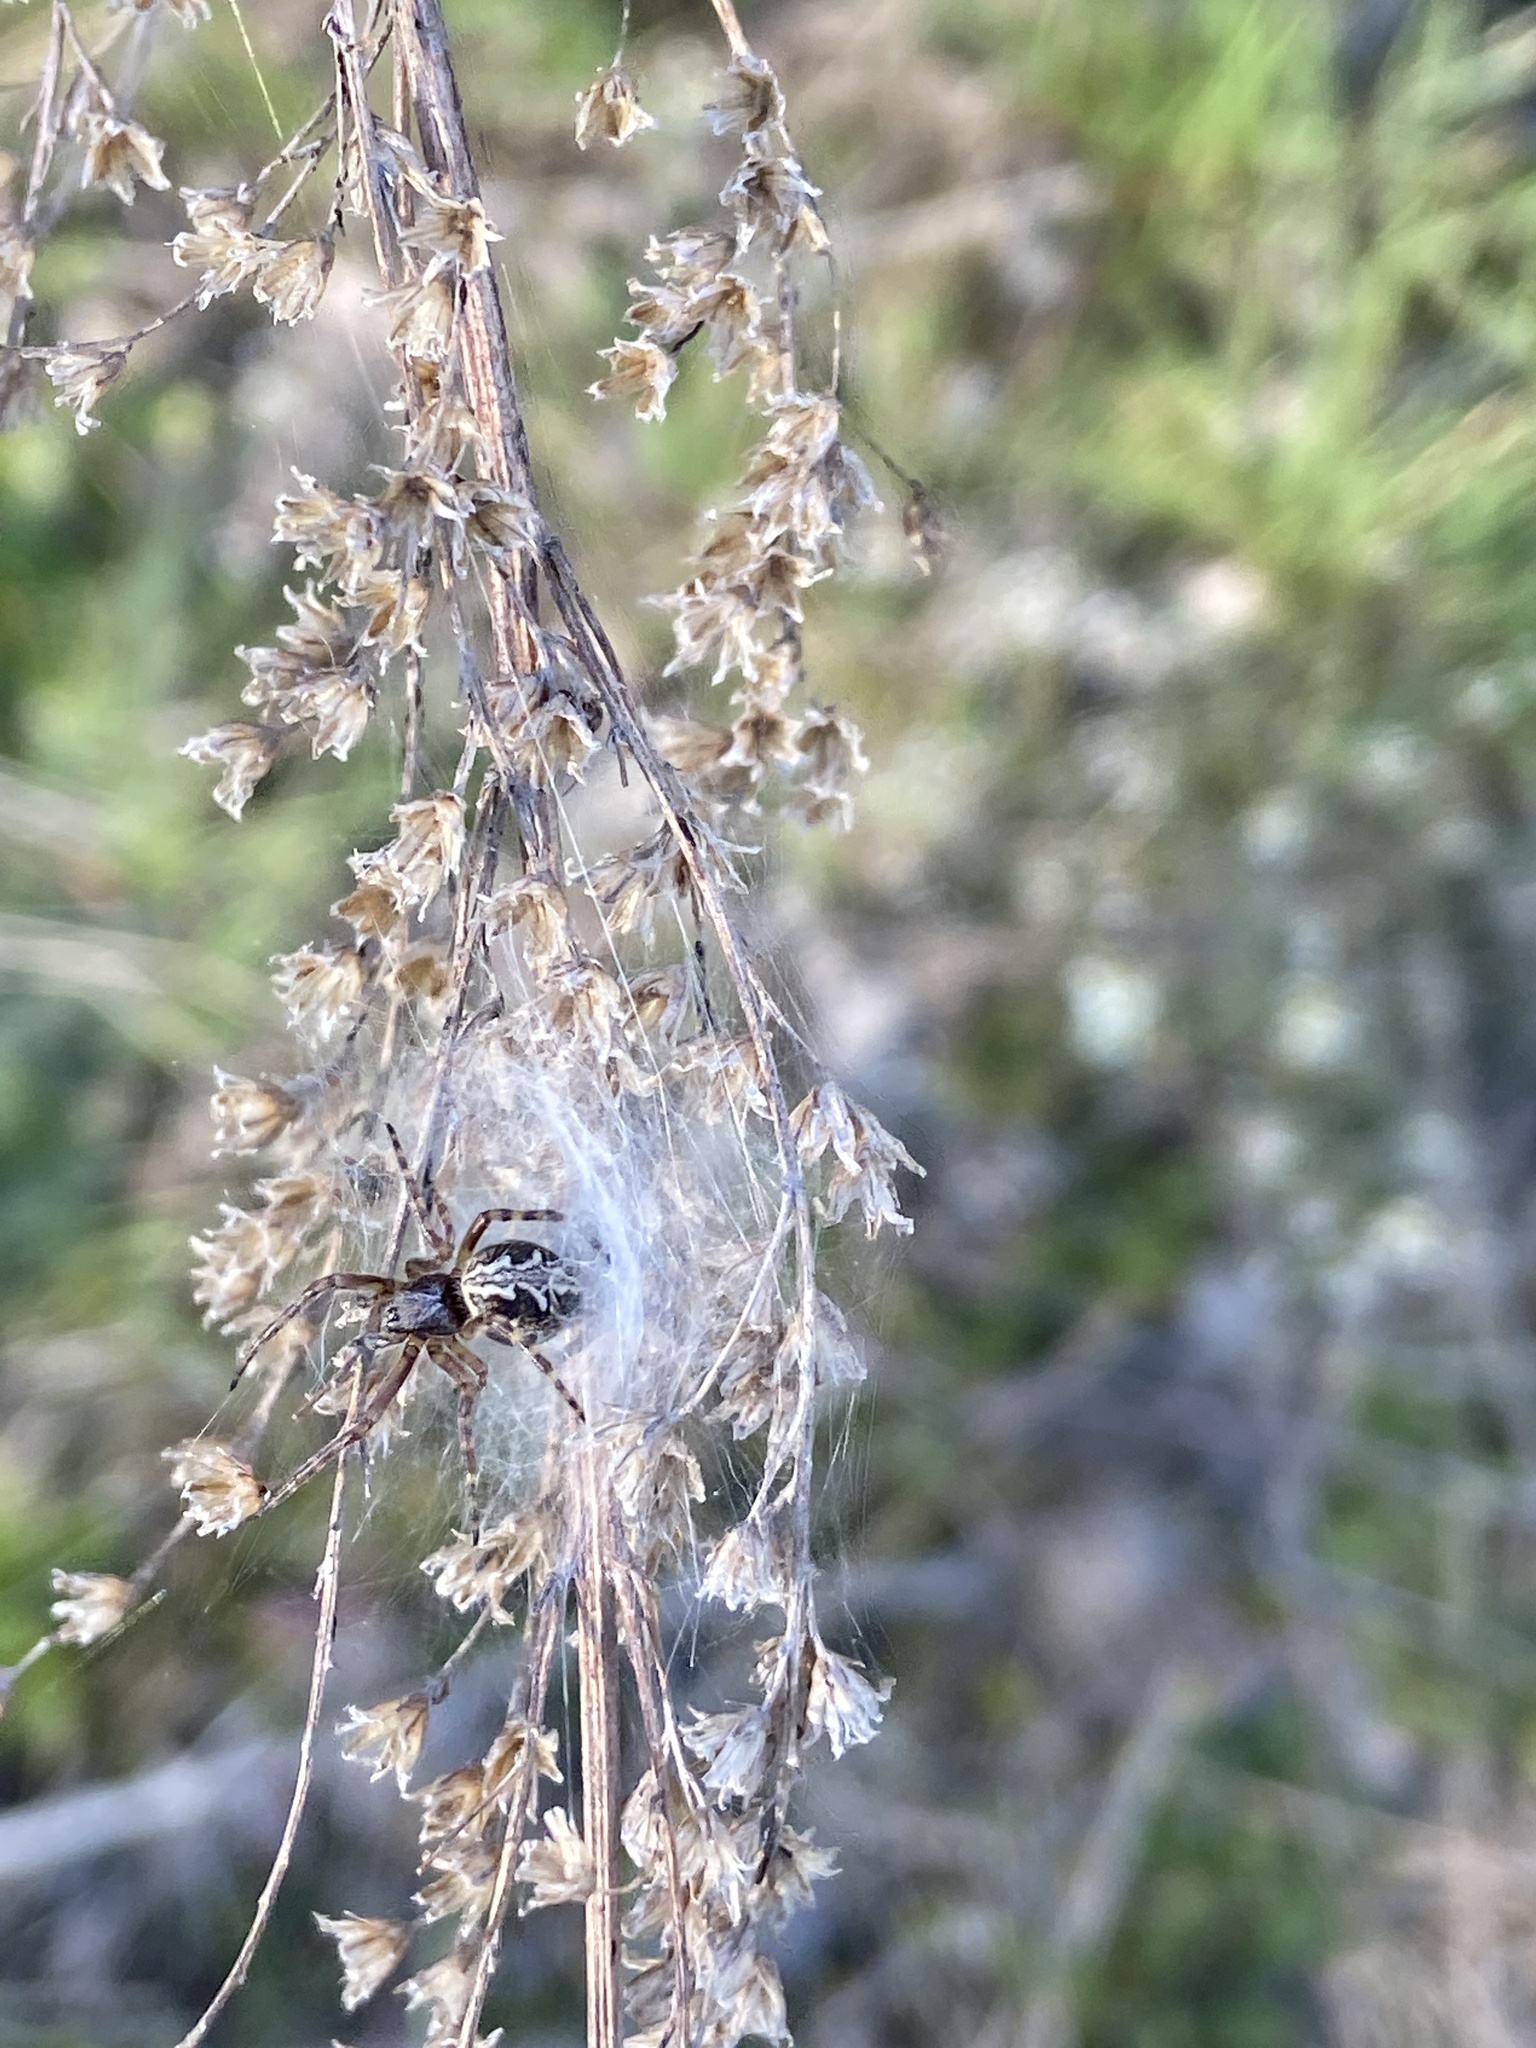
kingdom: Animalia
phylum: Arthropoda
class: Arachnida
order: Araneae
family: Araneidae
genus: Aculepeira
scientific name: Aculepeira ceropegia
